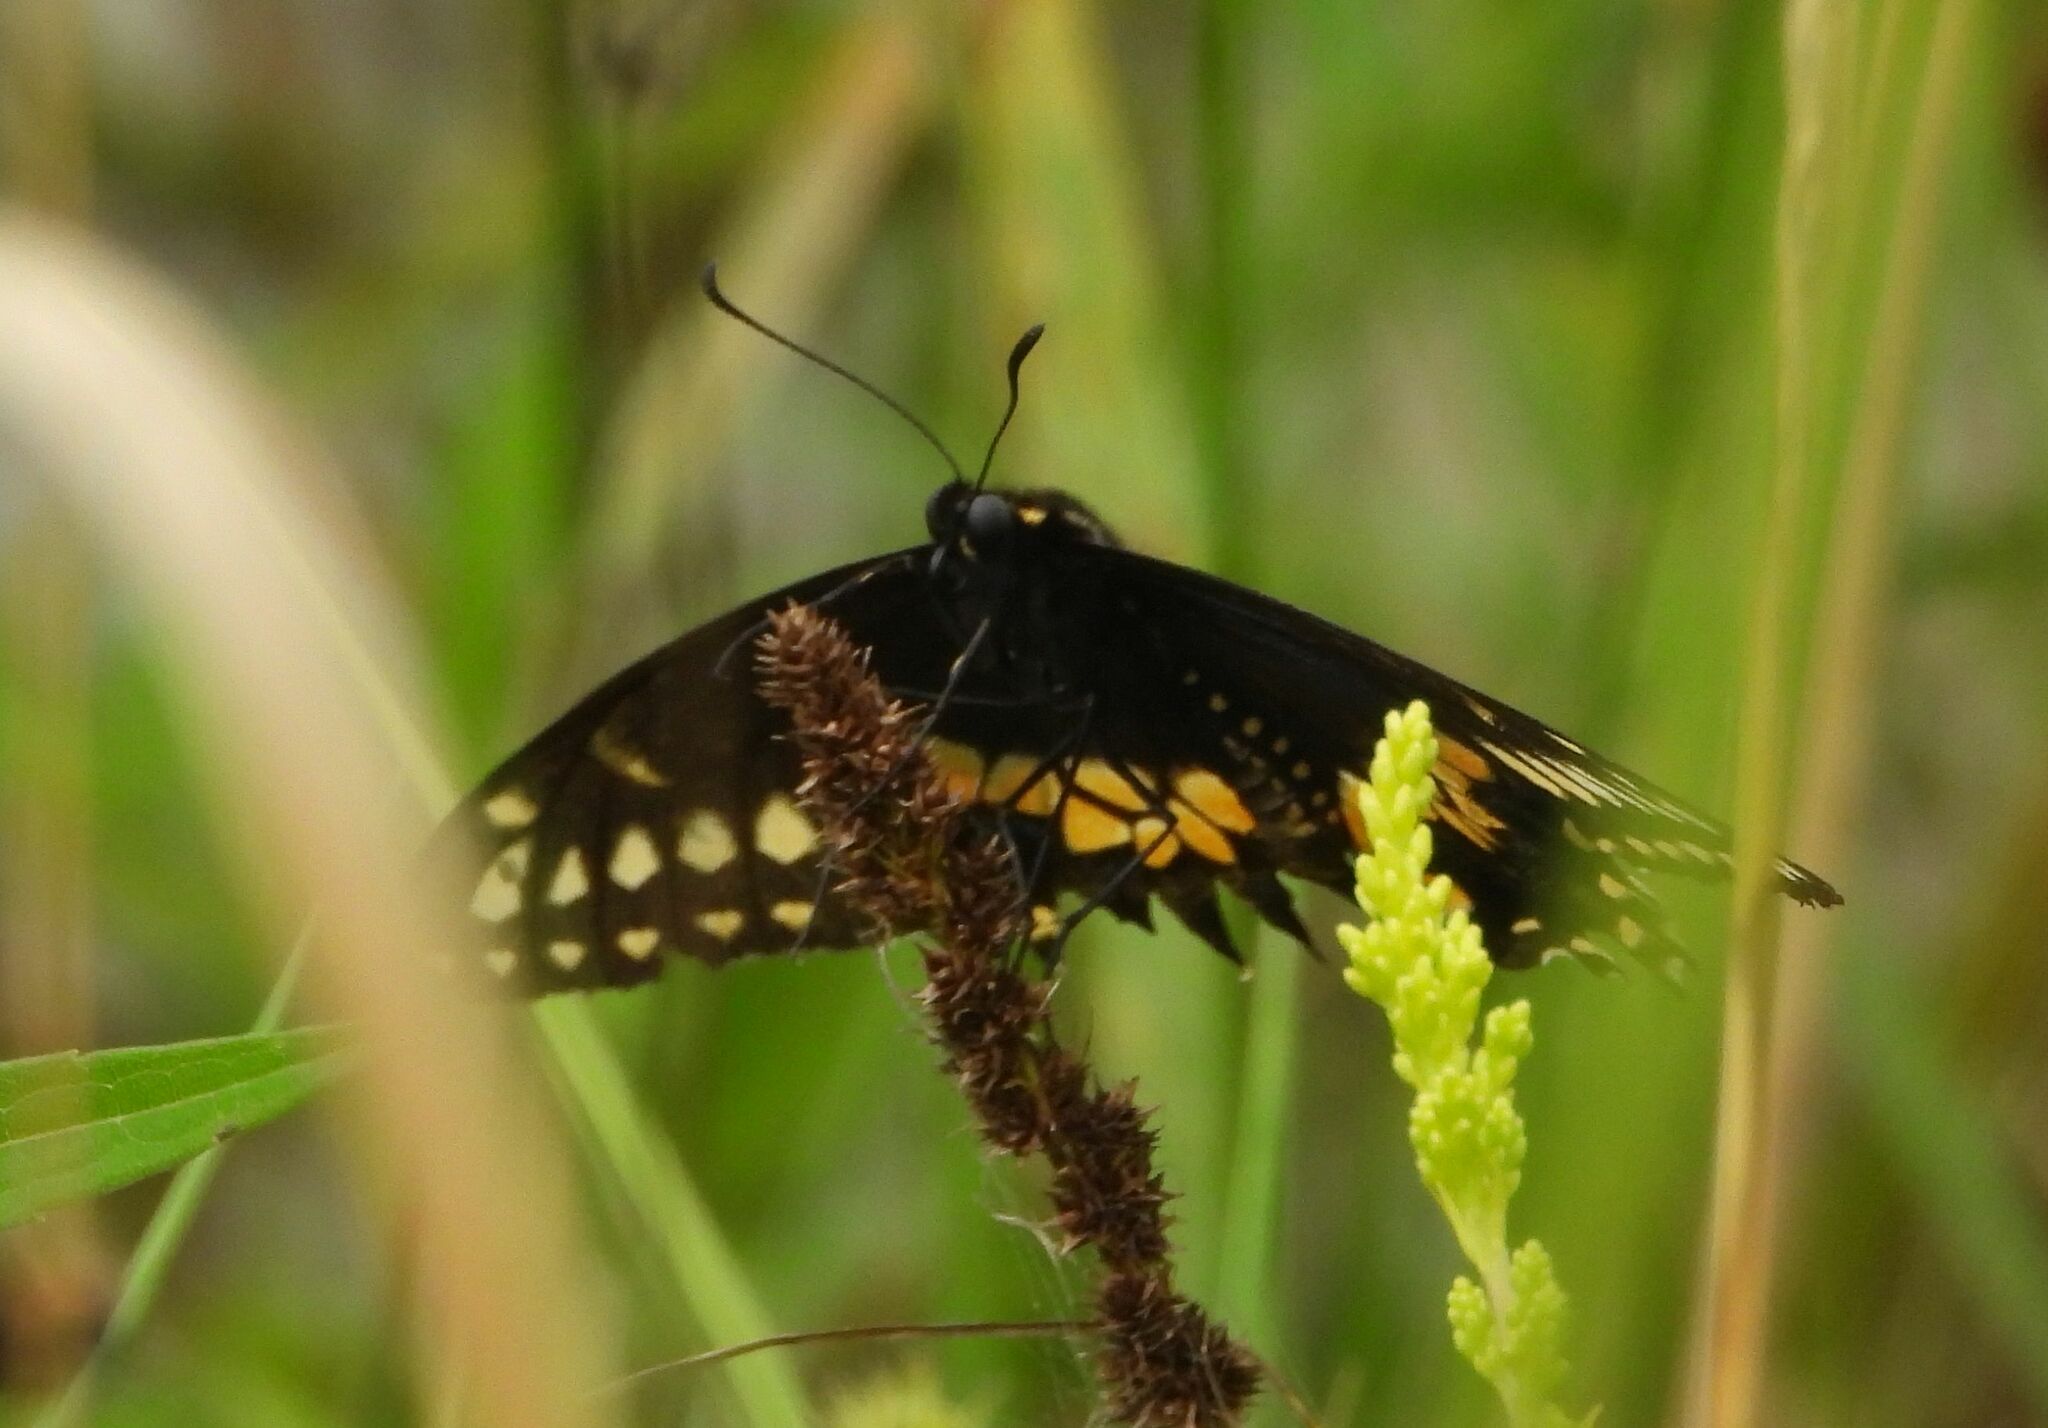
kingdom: Animalia
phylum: Arthropoda
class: Insecta
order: Lepidoptera
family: Papilionidae
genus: Papilio
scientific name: Papilio polyxenes
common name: Black swallowtail
